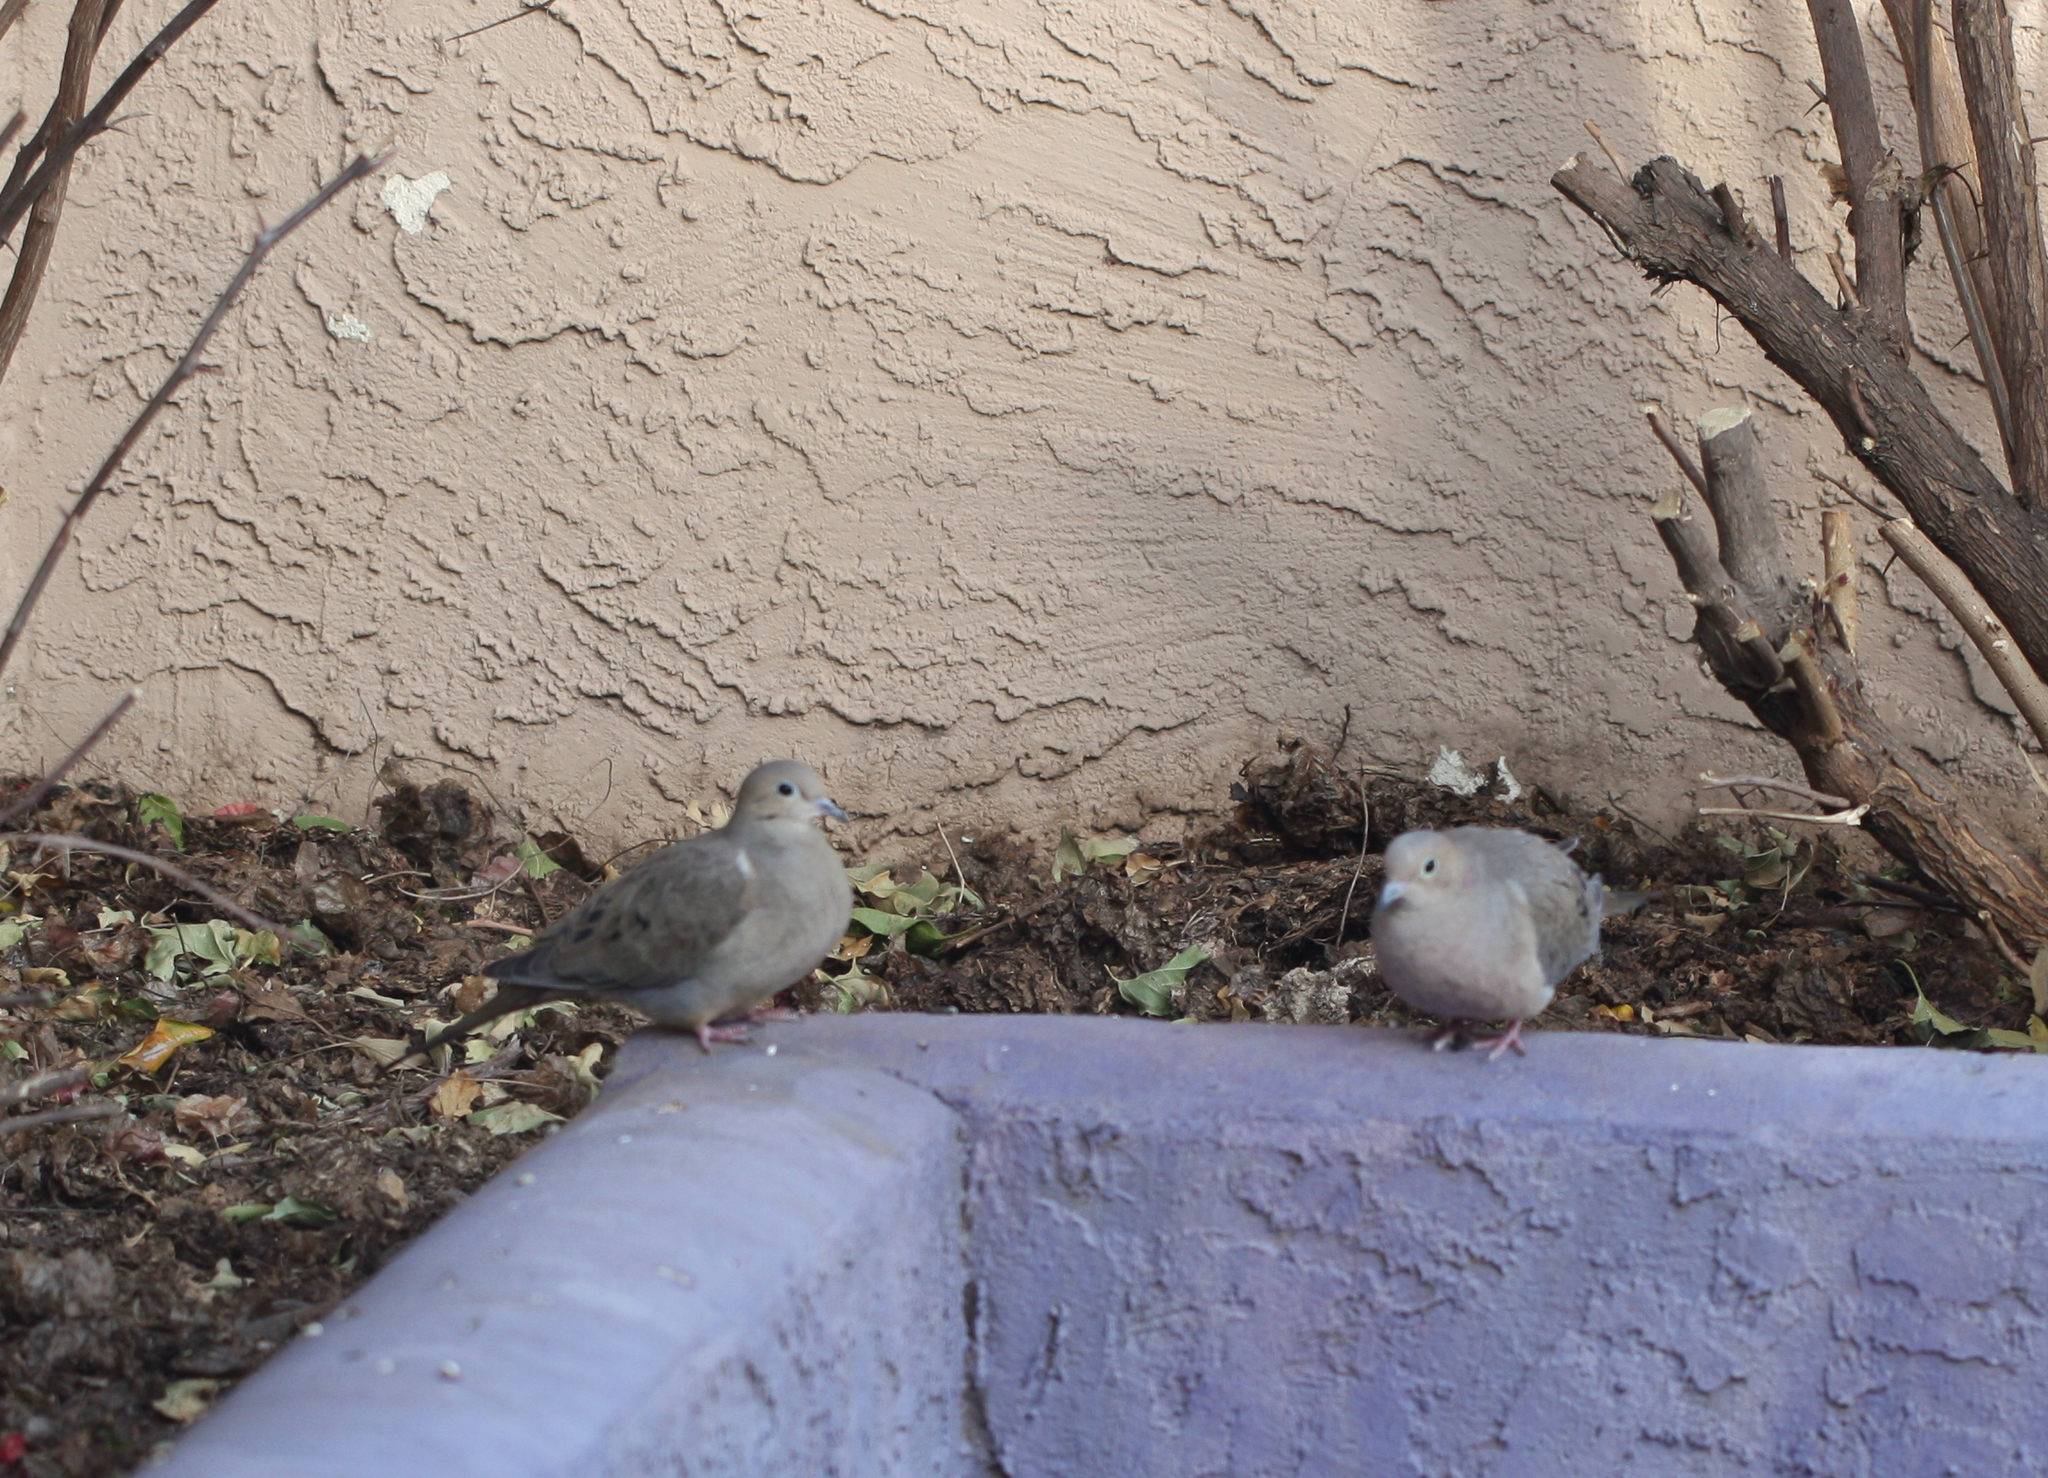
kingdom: Animalia
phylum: Chordata
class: Aves
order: Columbiformes
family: Columbidae
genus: Zenaida
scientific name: Zenaida macroura
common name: Mourning dove
